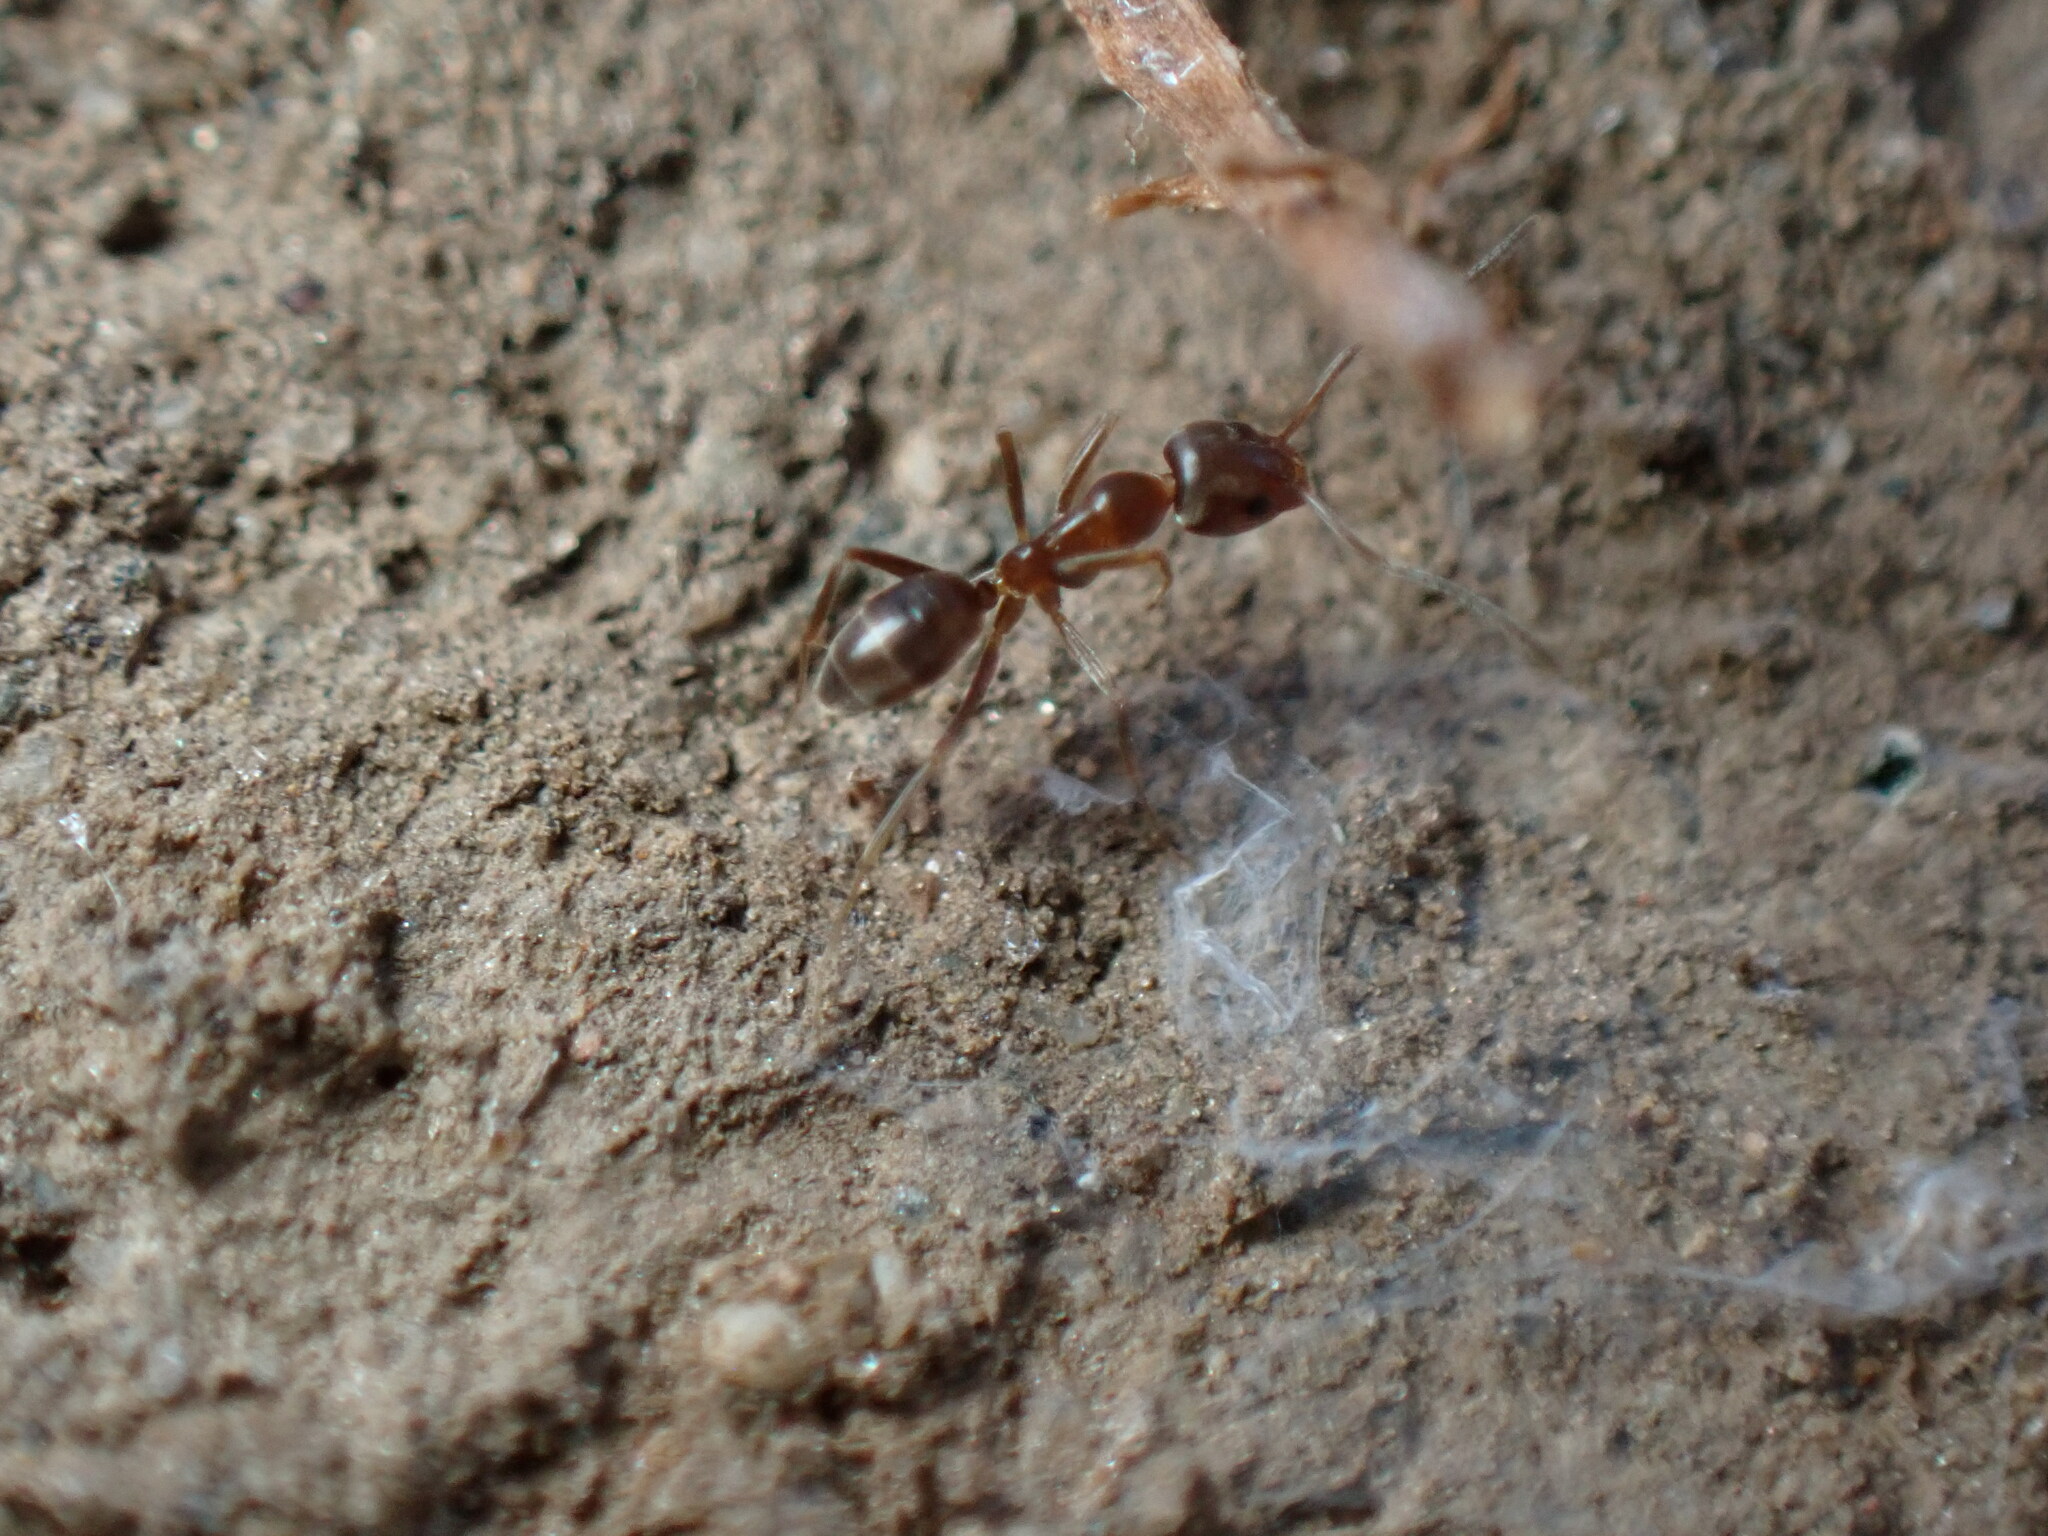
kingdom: Animalia
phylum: Arthropoda
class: Insecta
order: Hymenoptera
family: Formicidae
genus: Linepithema
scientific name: Linepithema humile
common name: Argentine ant
